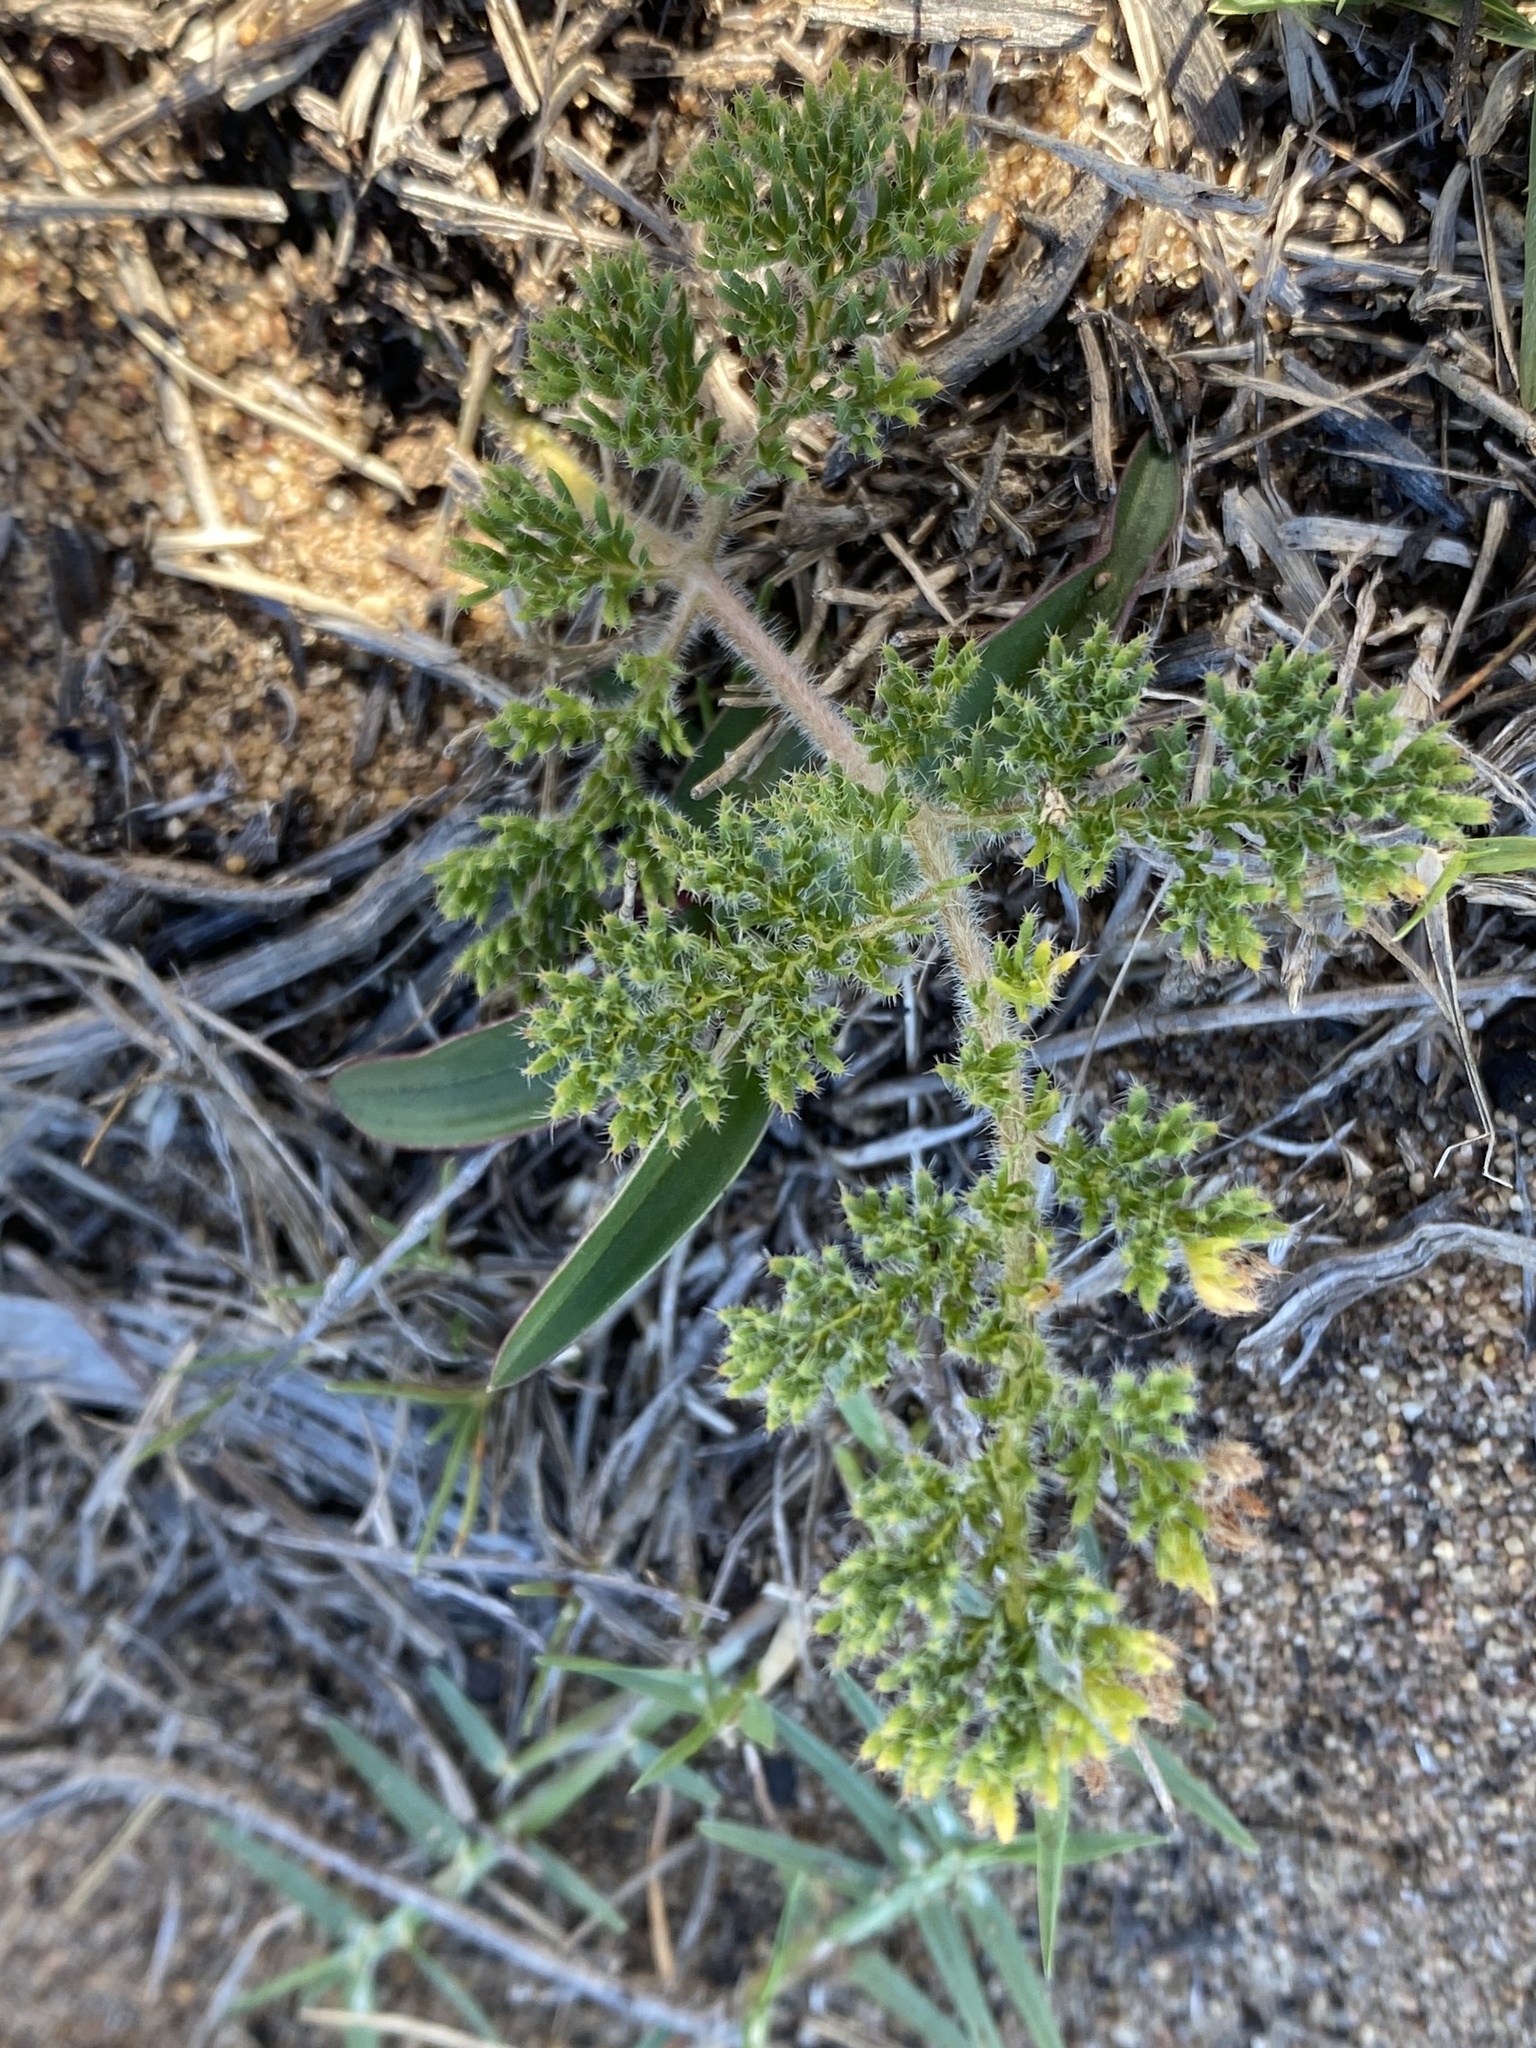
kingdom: Plantae
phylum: Tracheophyta
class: Magnoliopsida
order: Geraniales
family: Geraniaceae
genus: Pelargonium
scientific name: Pelargonium triste
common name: Night-scent pelargonium
